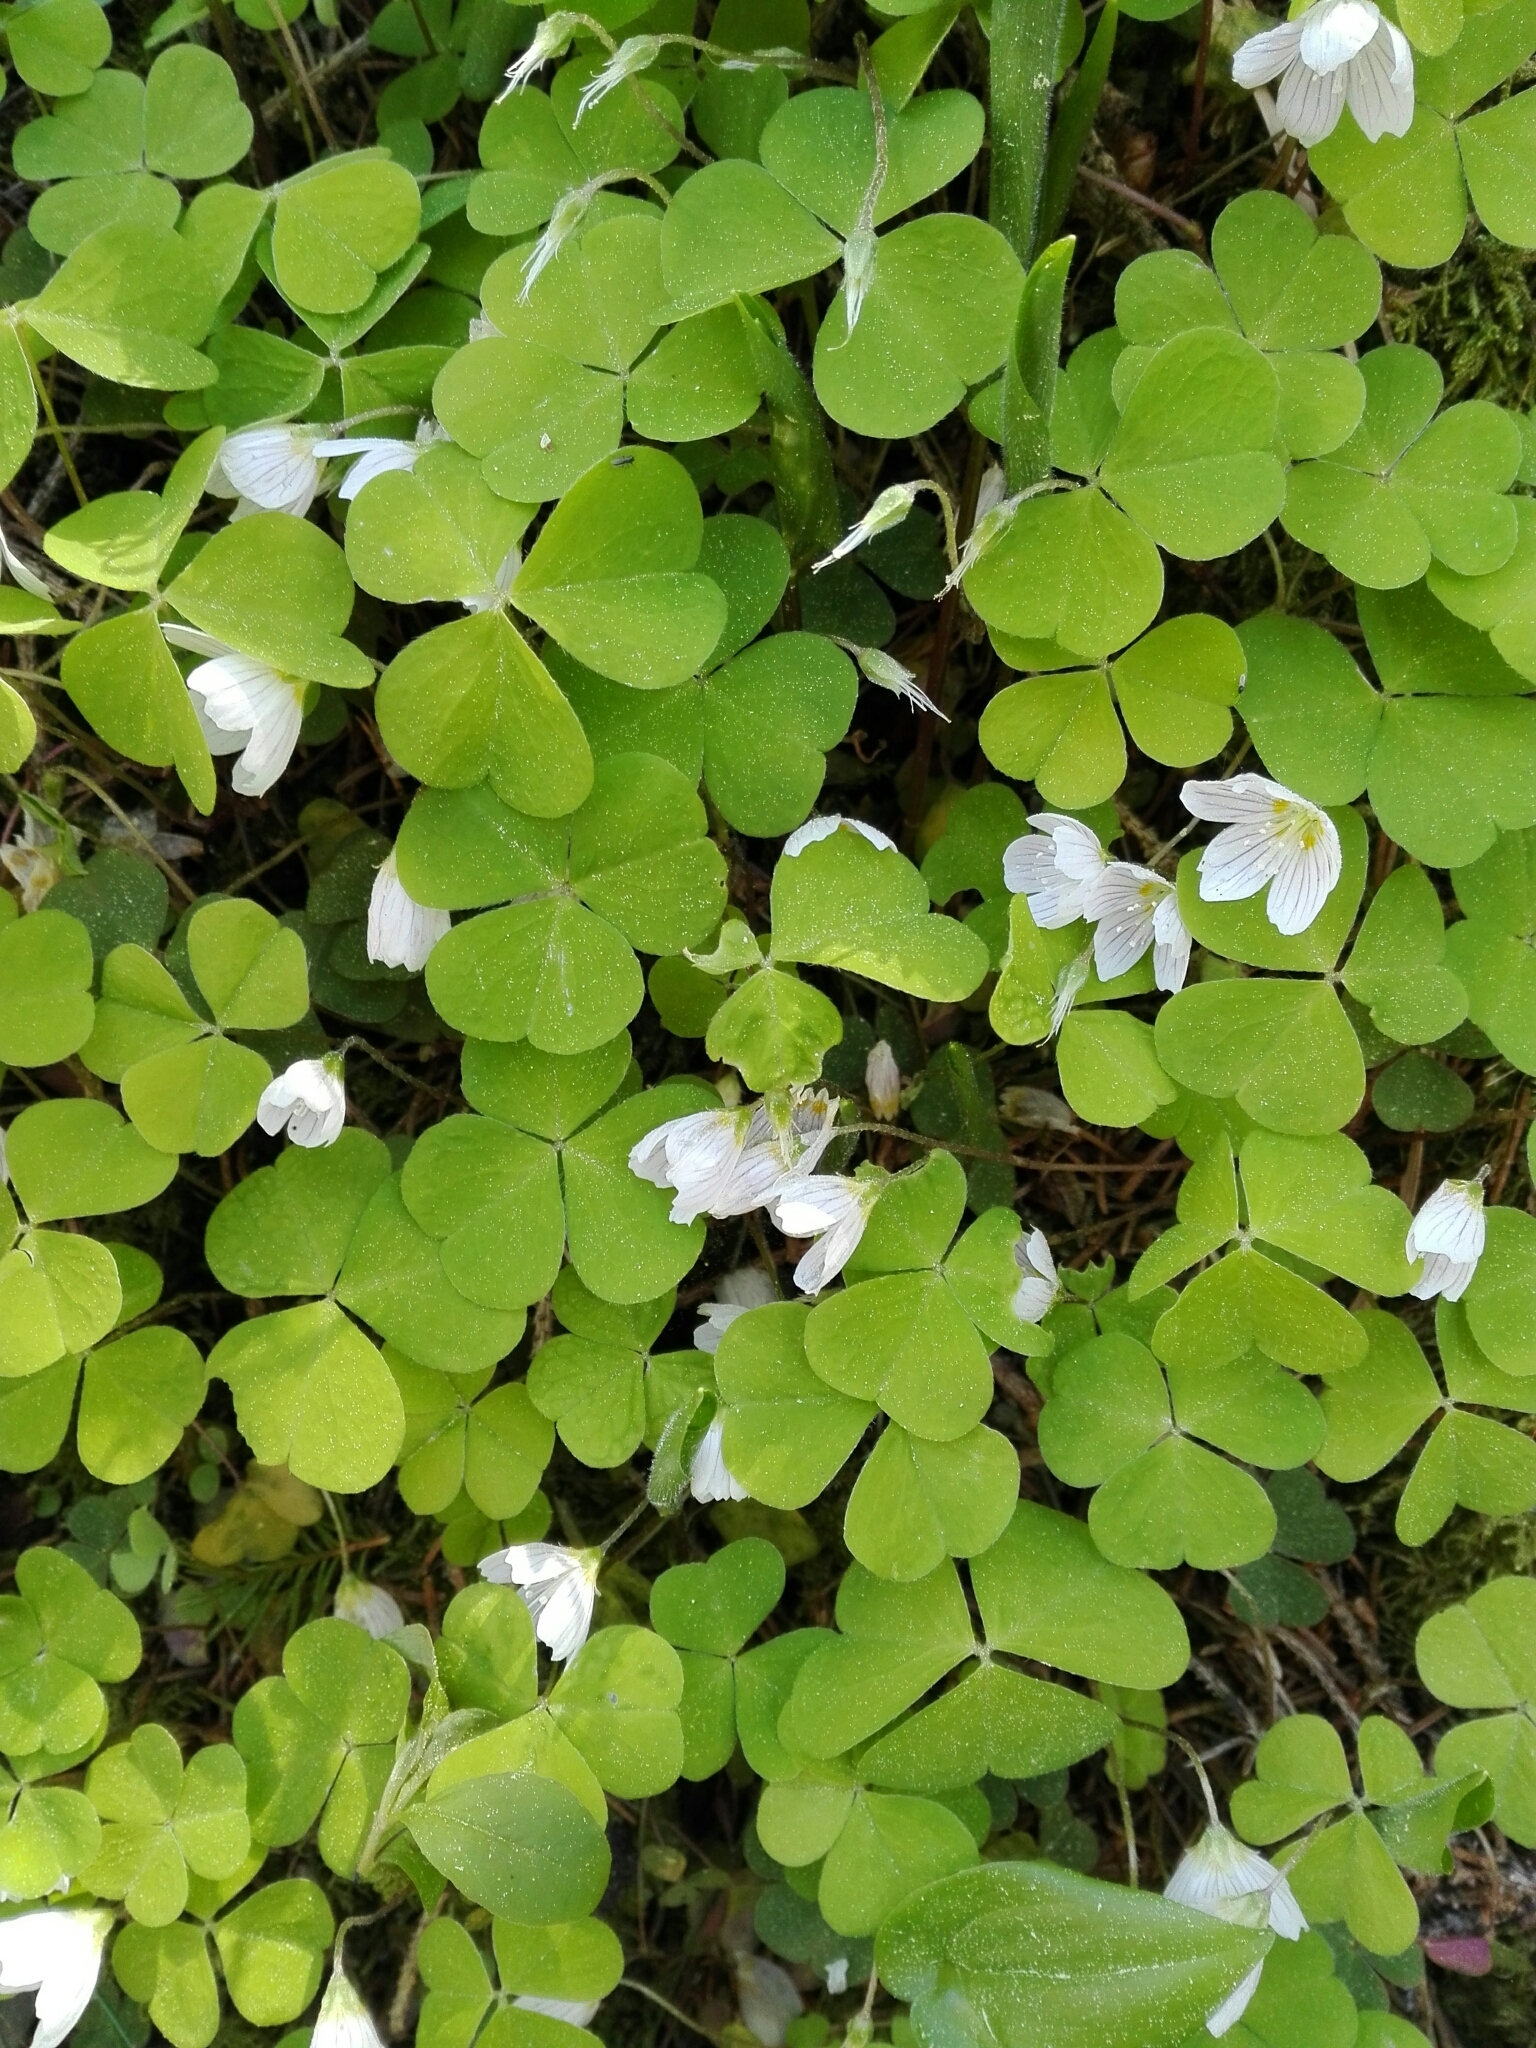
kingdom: Plantae
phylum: Tracheophyta
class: Magnoliopsida
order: Oxalidales
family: Oxalidaceae
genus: Oxalis
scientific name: Oxalis acetosella
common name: Wood-sorrel
